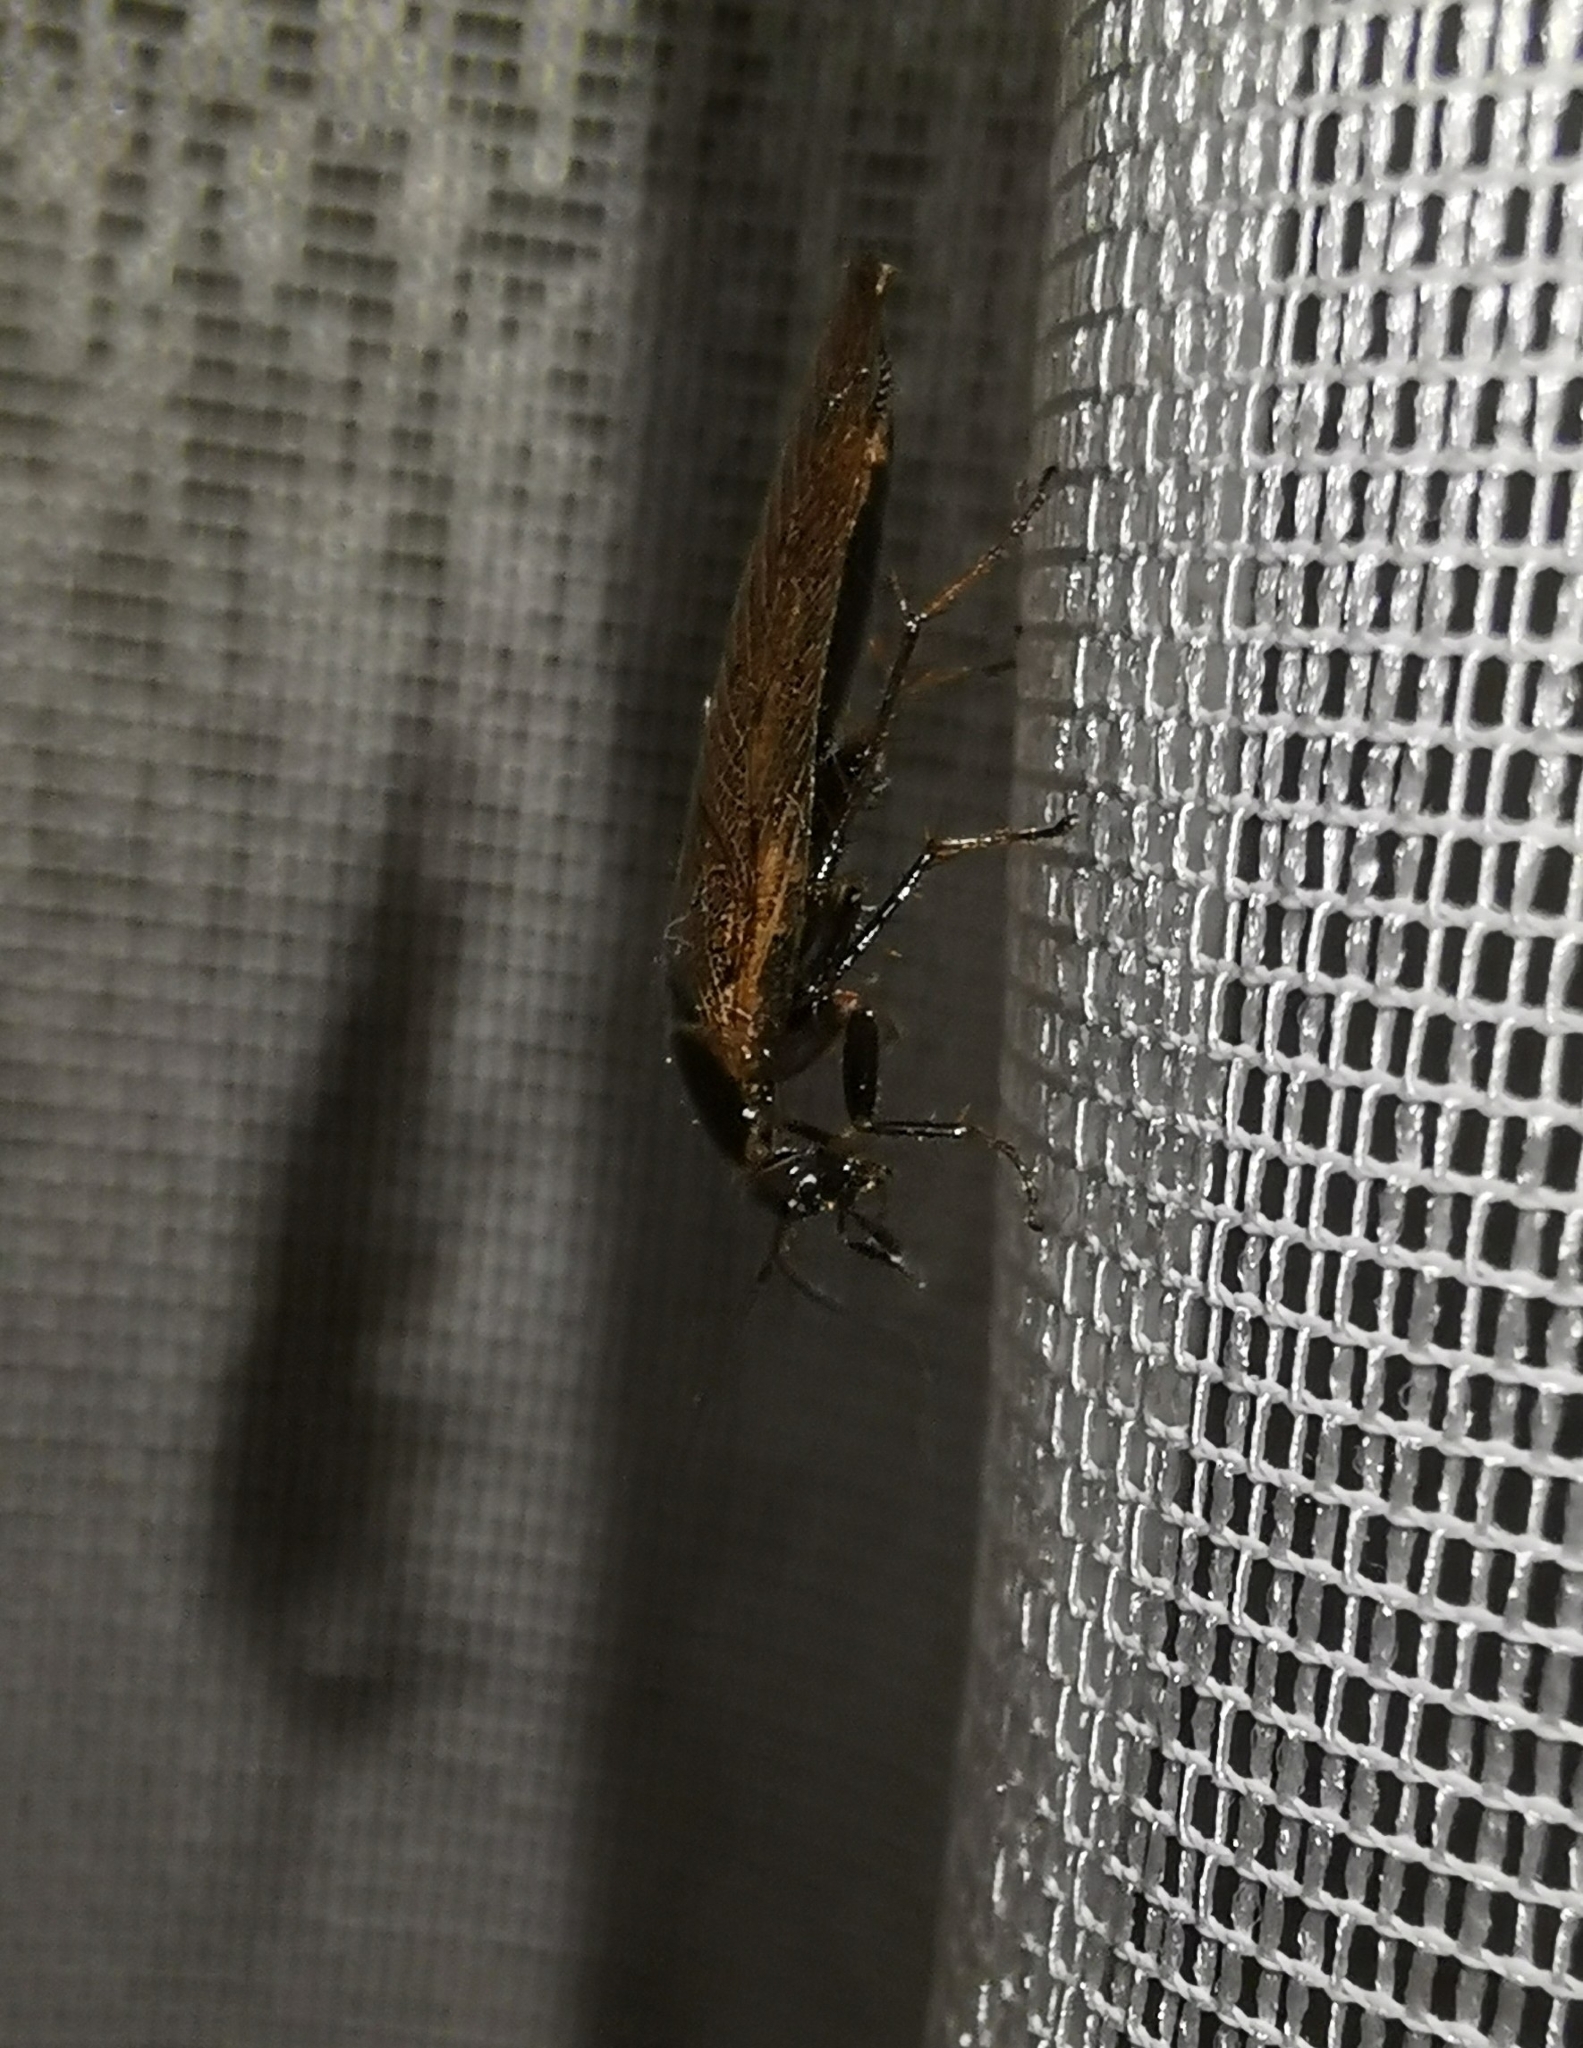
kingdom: Animalia
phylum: Arthropoda
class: Insecta
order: Blattodea
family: Ectobiidae
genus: Ectobius
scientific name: Ectobius lapponicus
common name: Dusky cockroach
